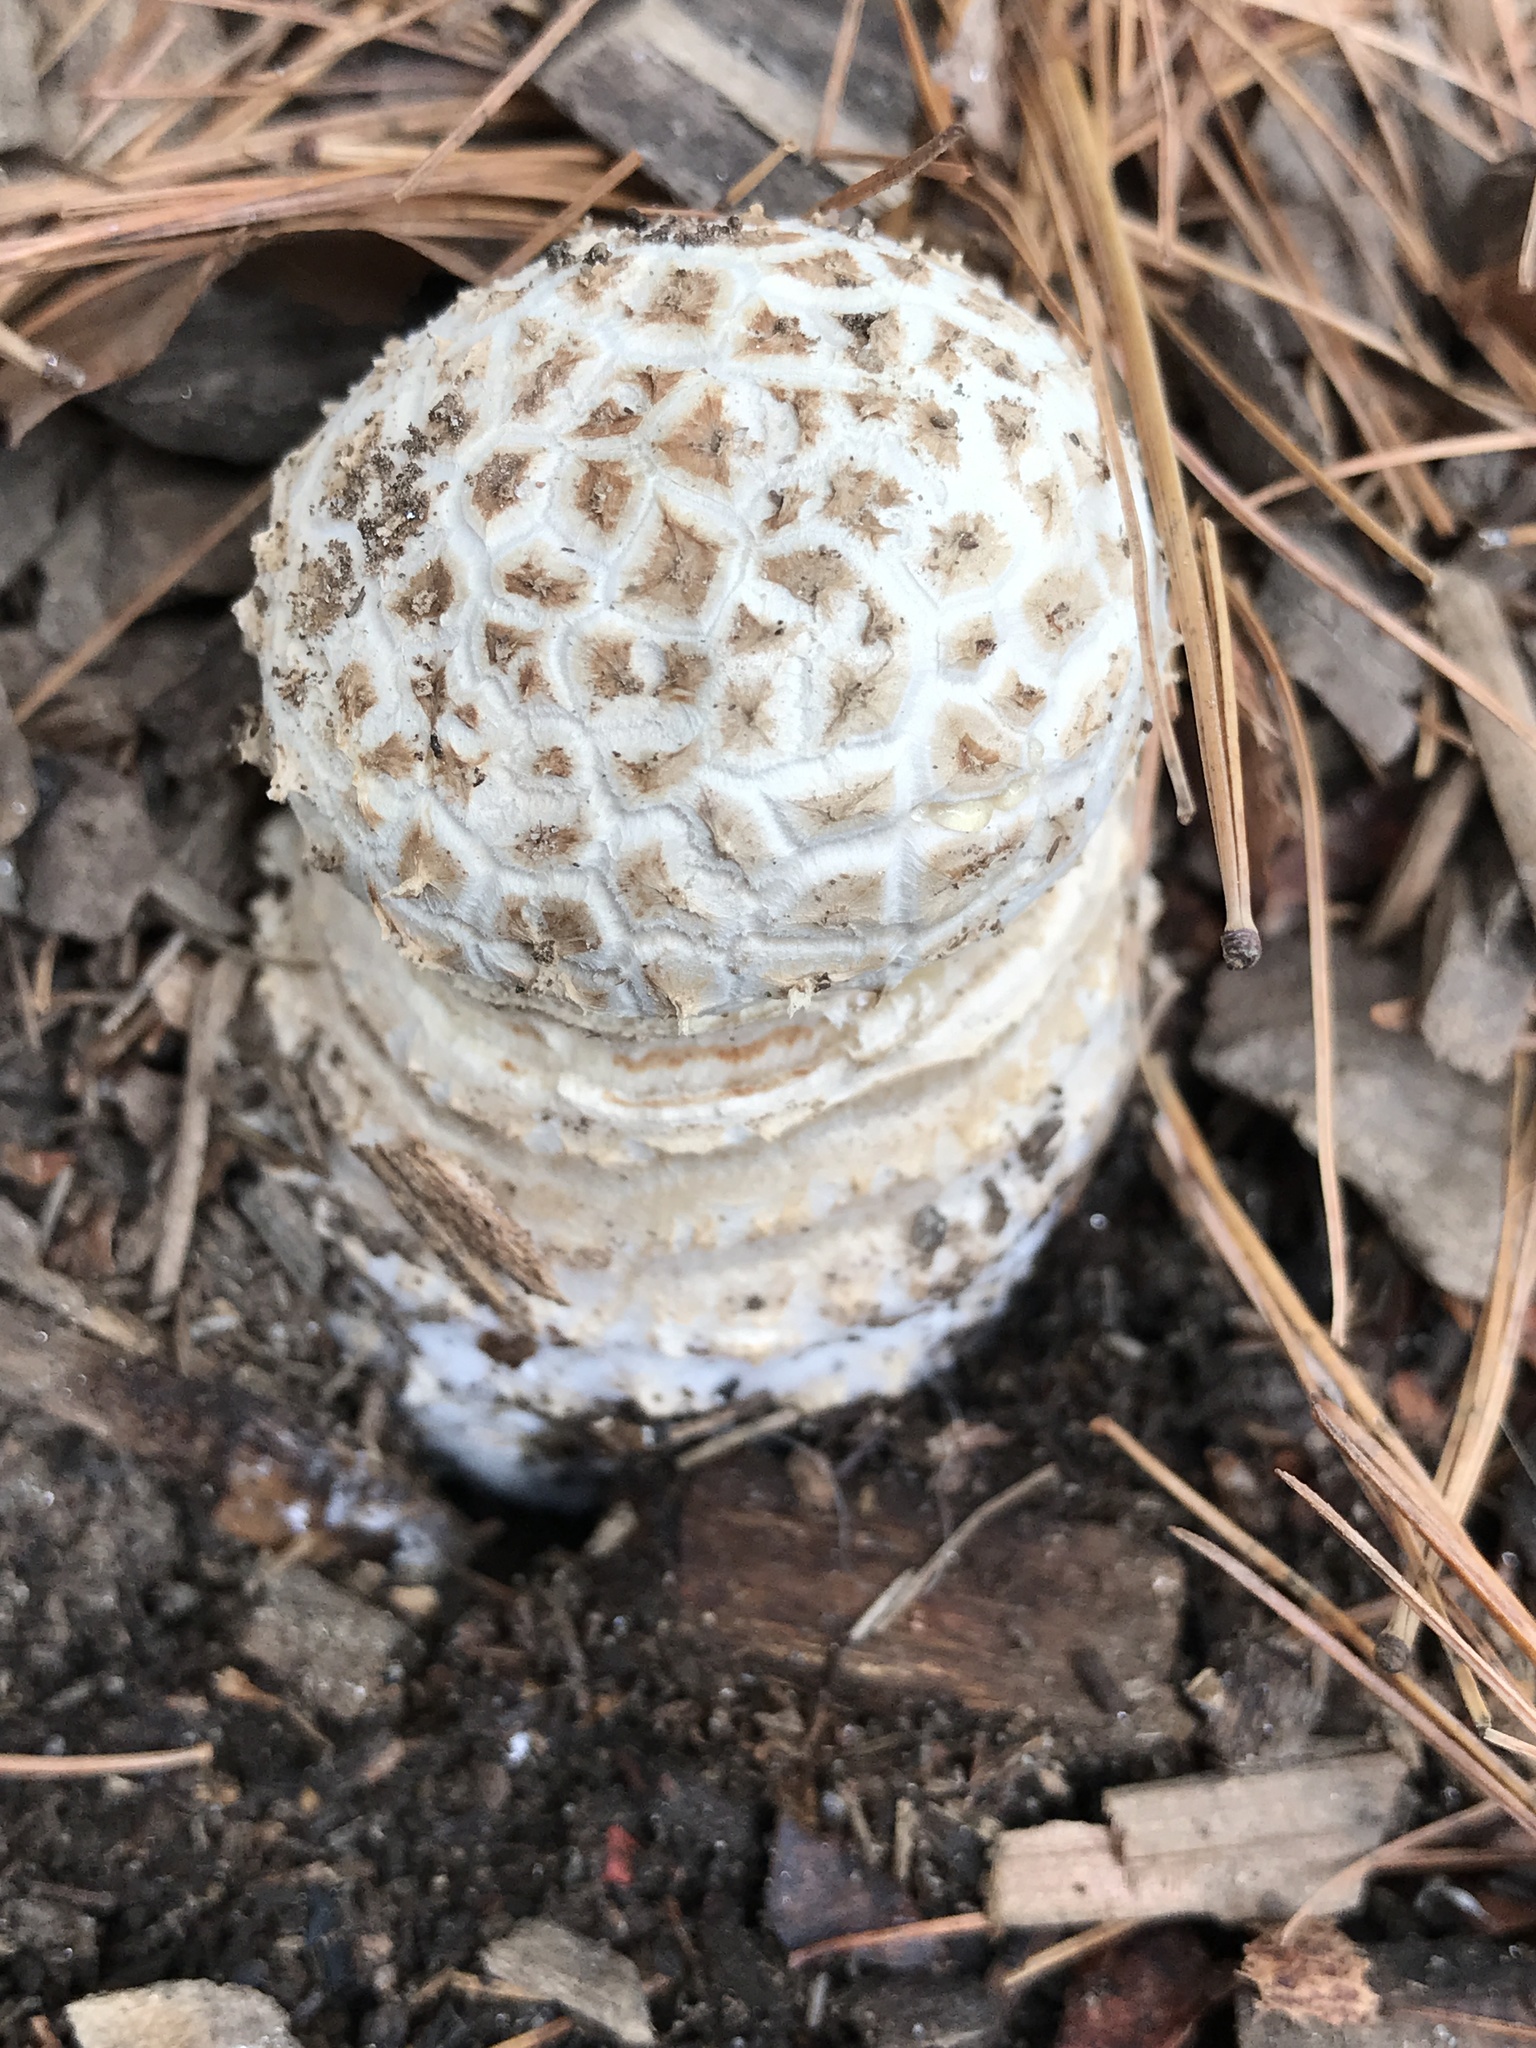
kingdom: Fungi
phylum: Basidiomycota
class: Agaricomycetes
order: Agaricales
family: Amanitaceae
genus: Amanita
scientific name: Amanita muscaria
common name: Fly agaric
